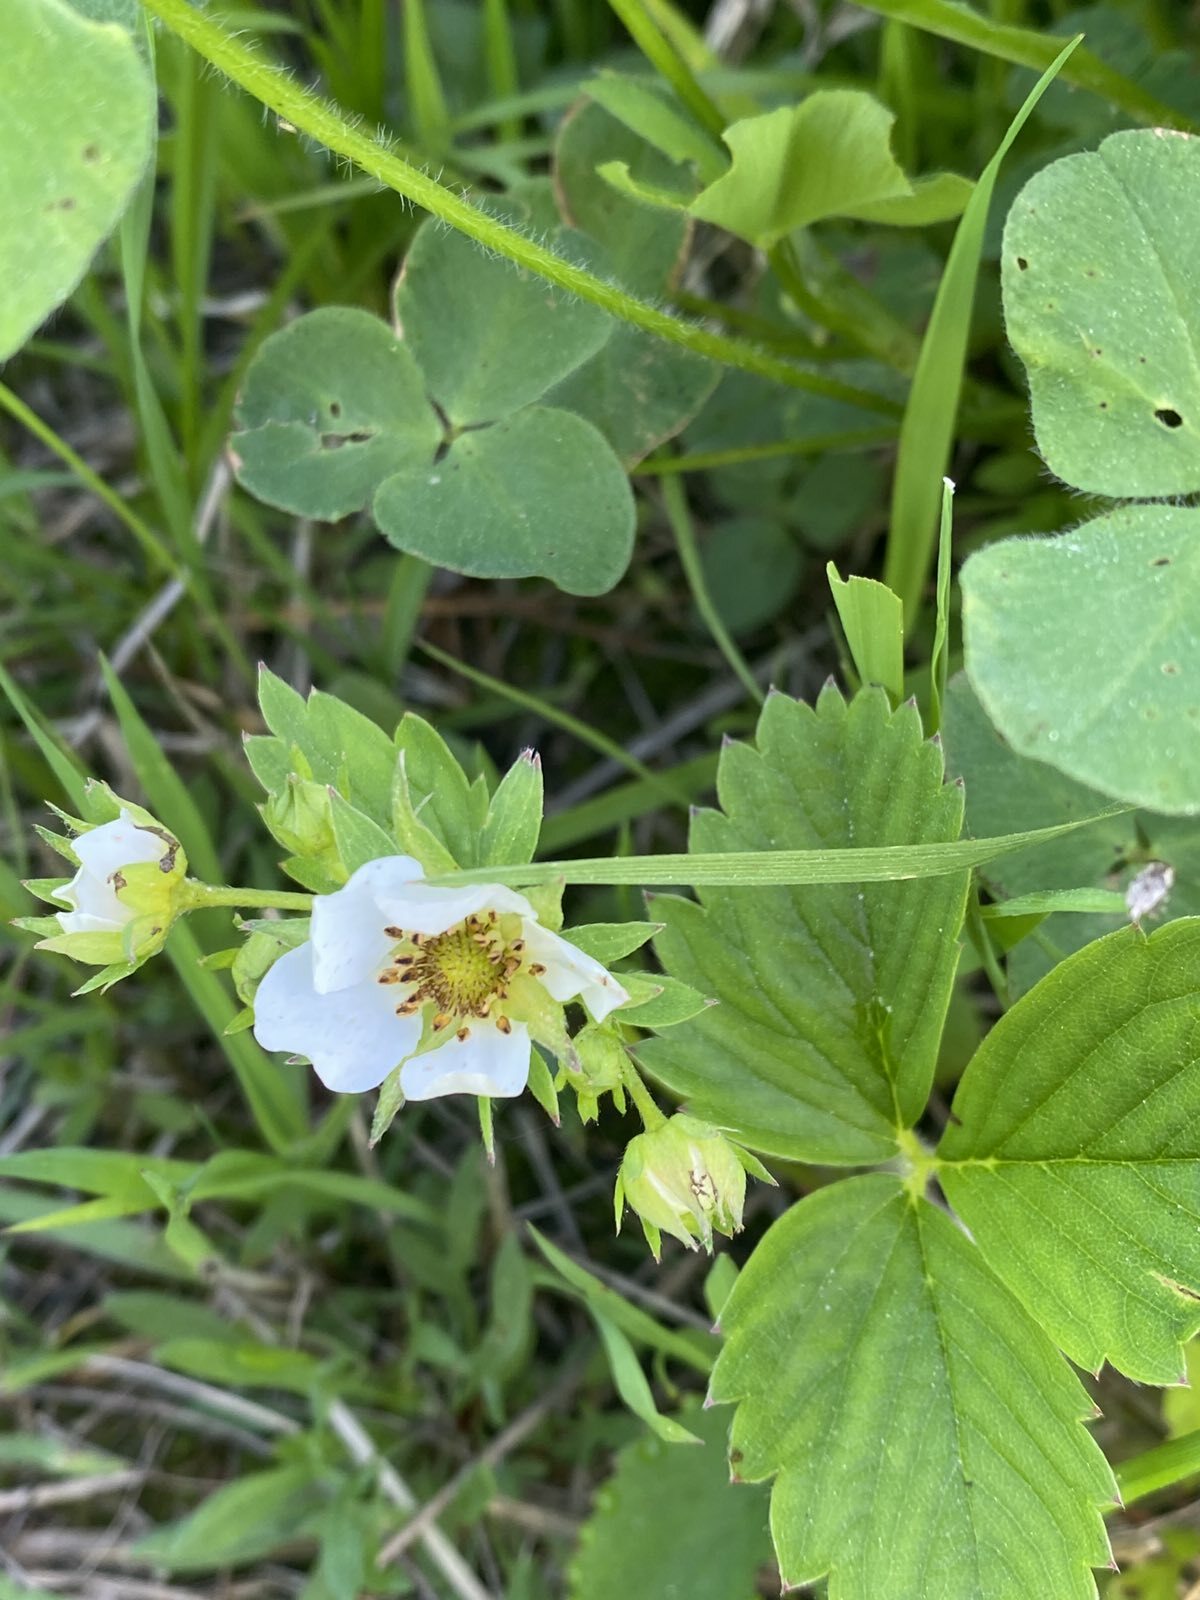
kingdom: Plantae
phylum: Tracheophyta
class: Magnoliopsida
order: Rosales
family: Rosaceae
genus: Fragaria
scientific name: Fragaria ananassa
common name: Garden strawberry
